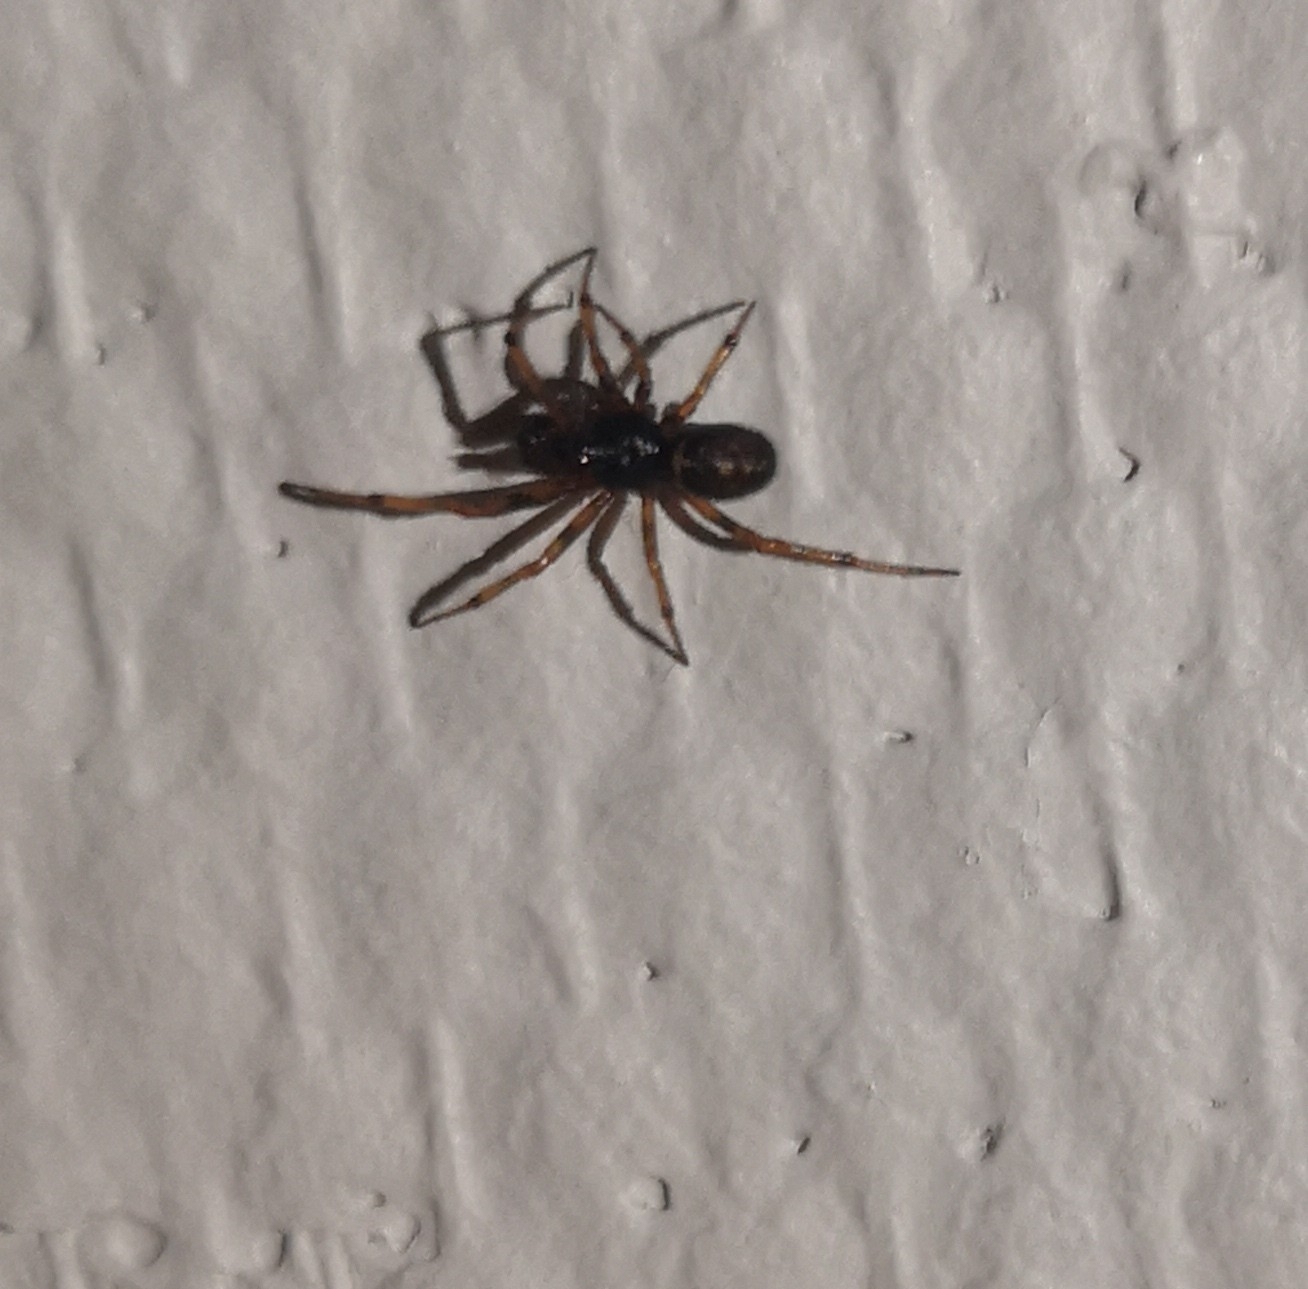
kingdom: Animalia
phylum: Arthropoda
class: Arachnida
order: Araneae
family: Theridiidae
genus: Steatoda
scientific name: Steatoda bipunctata
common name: False widow
